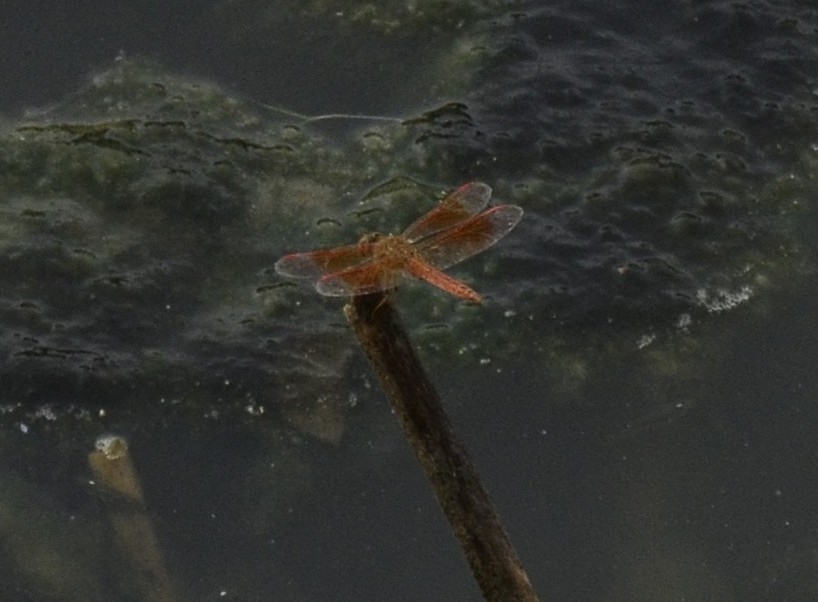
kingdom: Animalia
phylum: Arthropoda
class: Insecta
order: Odonata
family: Libellulidae
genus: Brachythemis
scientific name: Brachythemis contaminata
